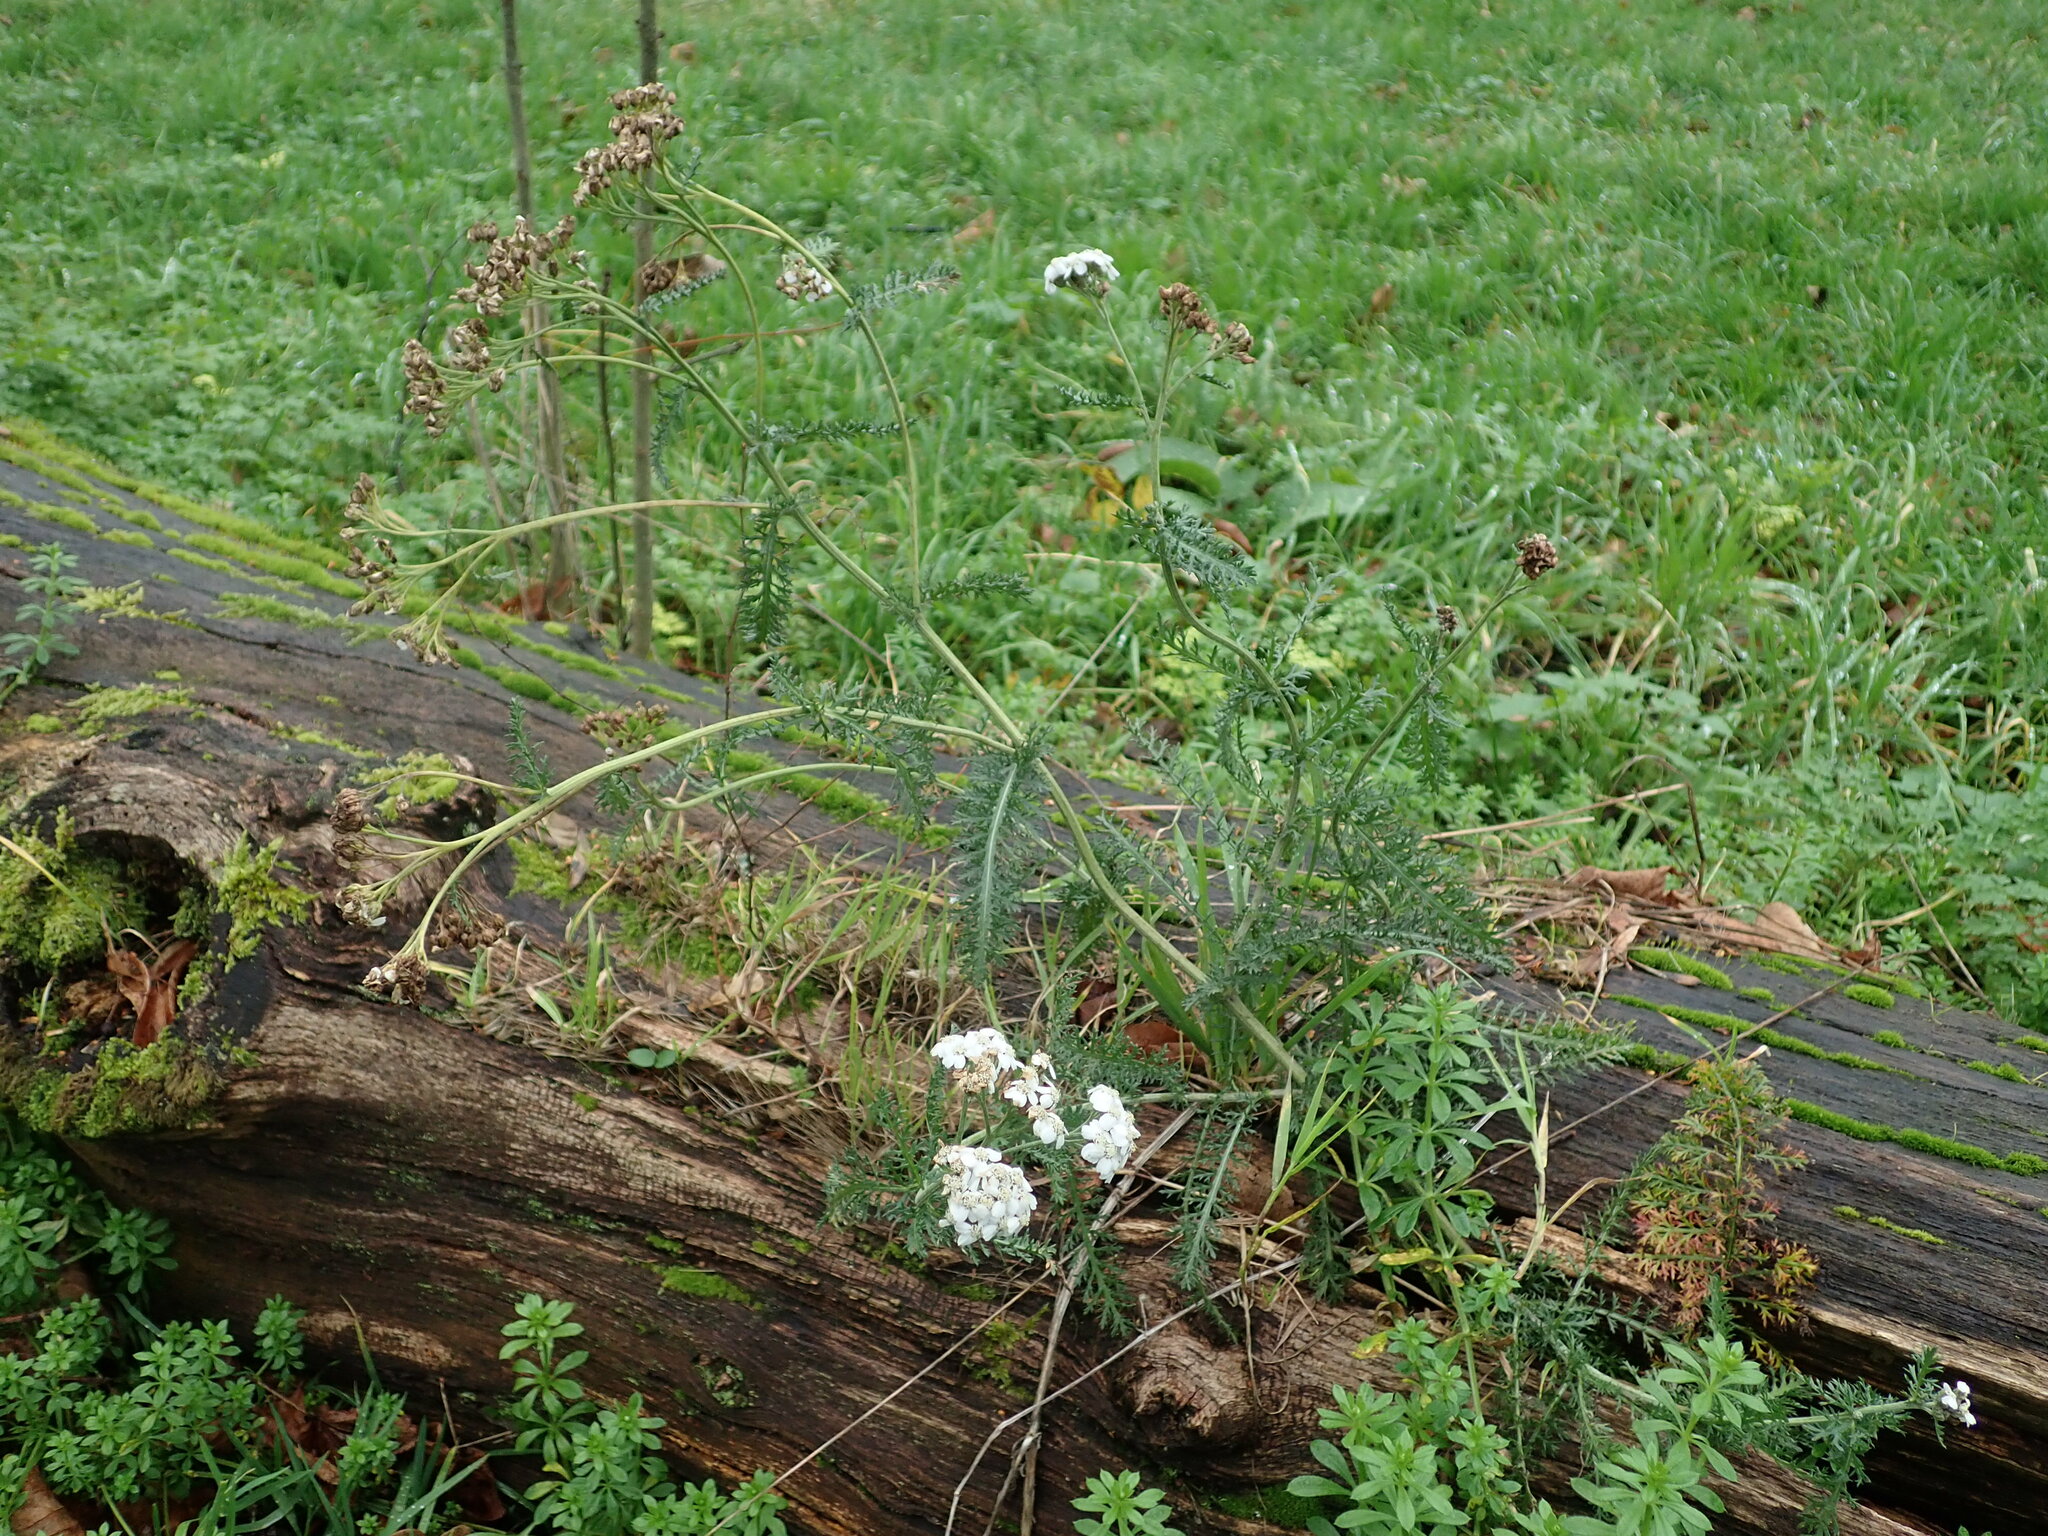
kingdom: Plantae
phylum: Tracheophyta
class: Magnoliopsida
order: Asterales
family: Asteraceae
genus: Achillea
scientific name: Achillea millefolium
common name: Yarrow
